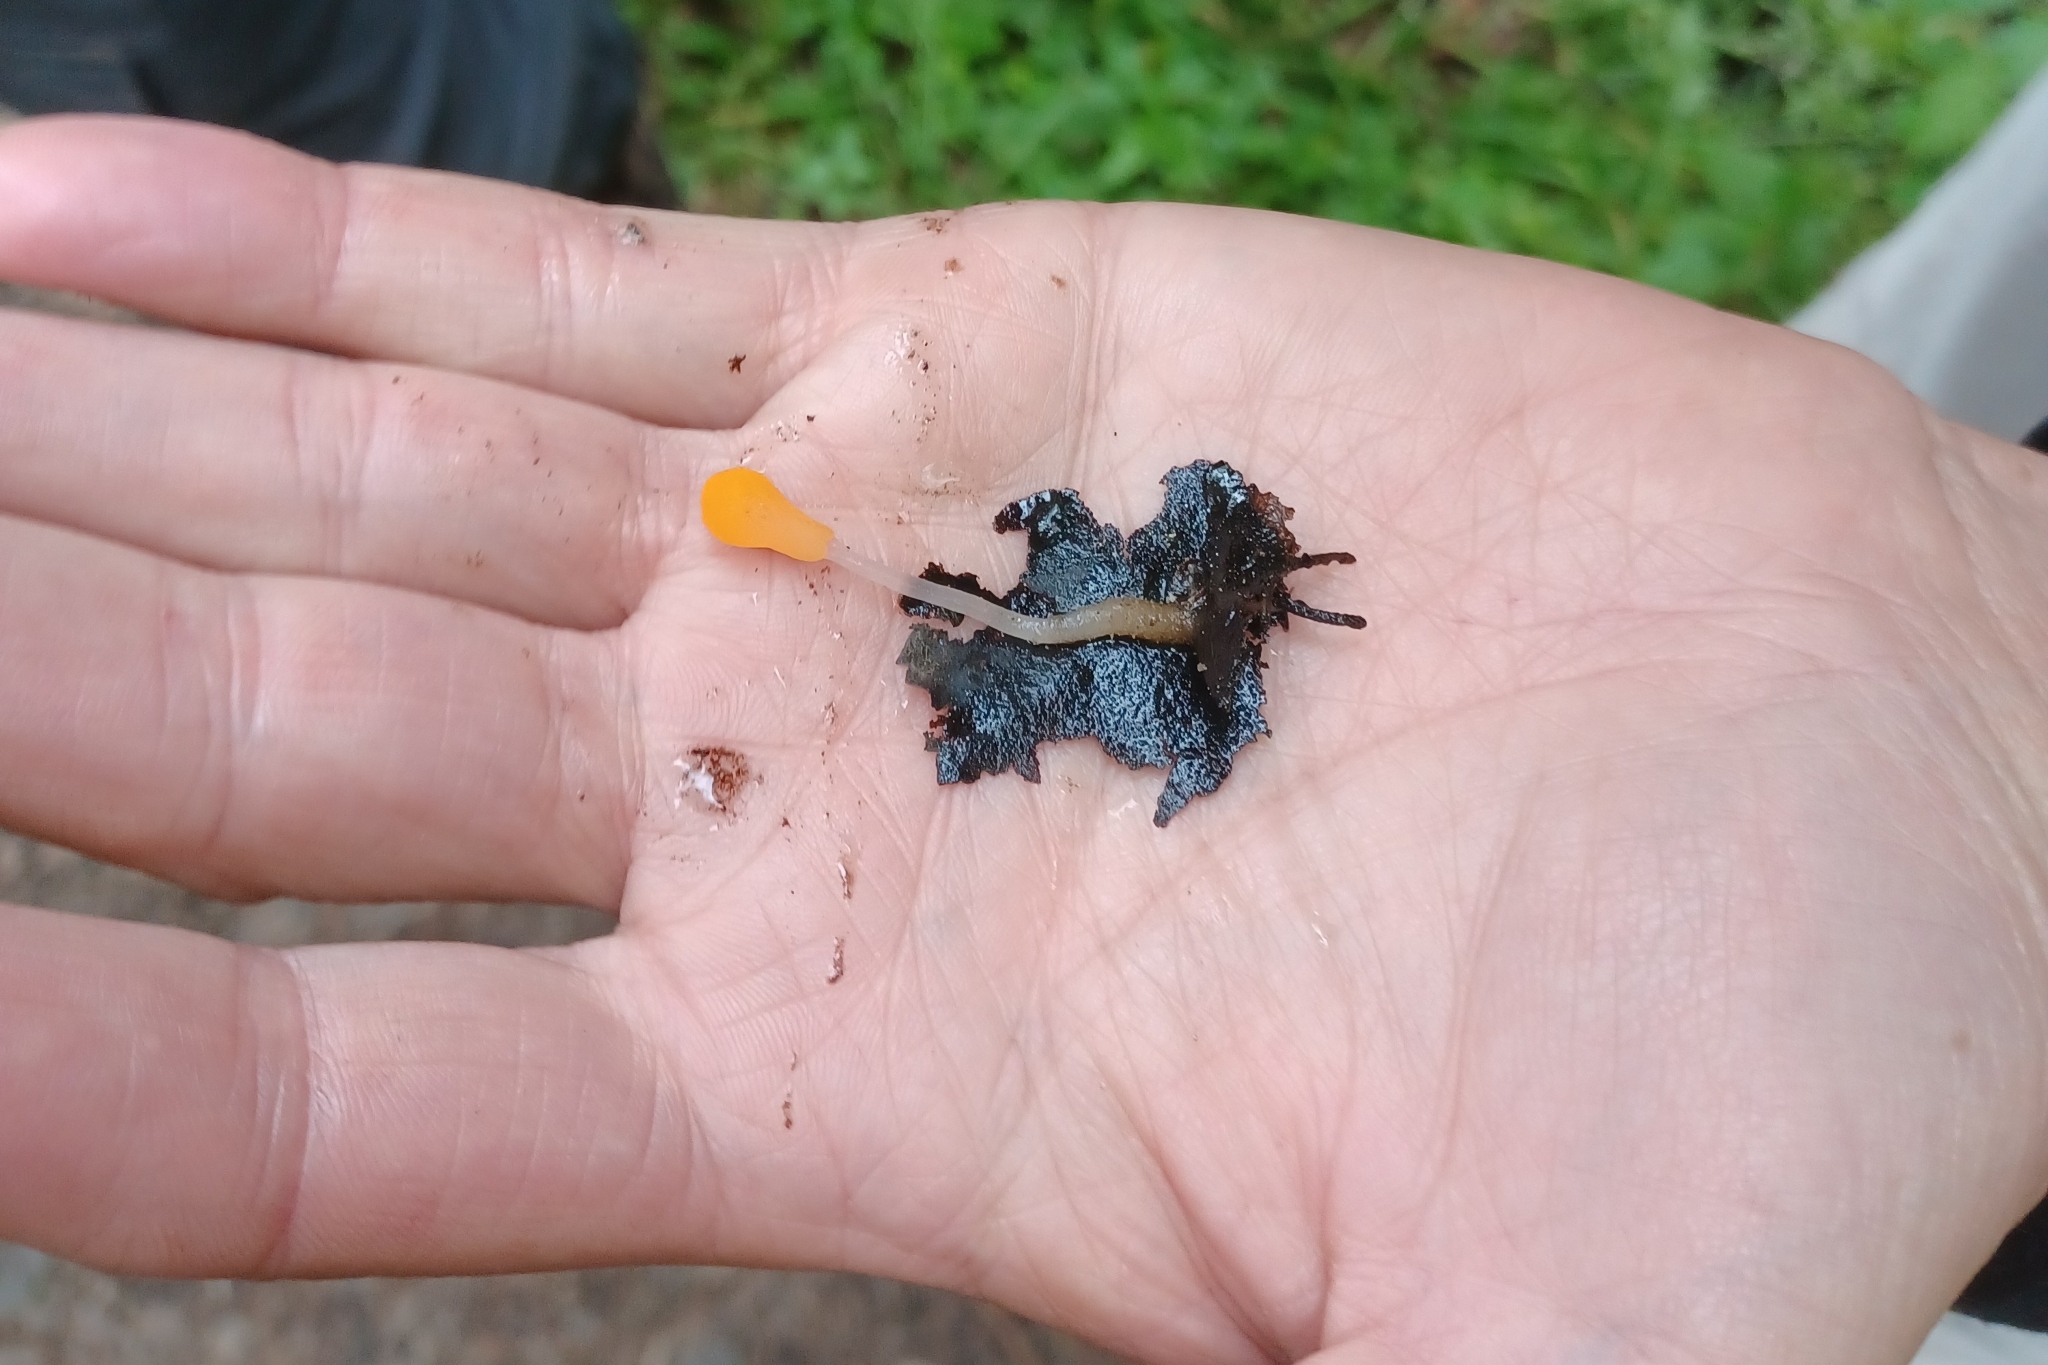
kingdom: Fungi
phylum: Ascomycota
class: Leotiomycetes
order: Helotiales
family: Sclerotiniaceae
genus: Mitrula
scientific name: Mitrula elegans
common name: Swamp beacon
